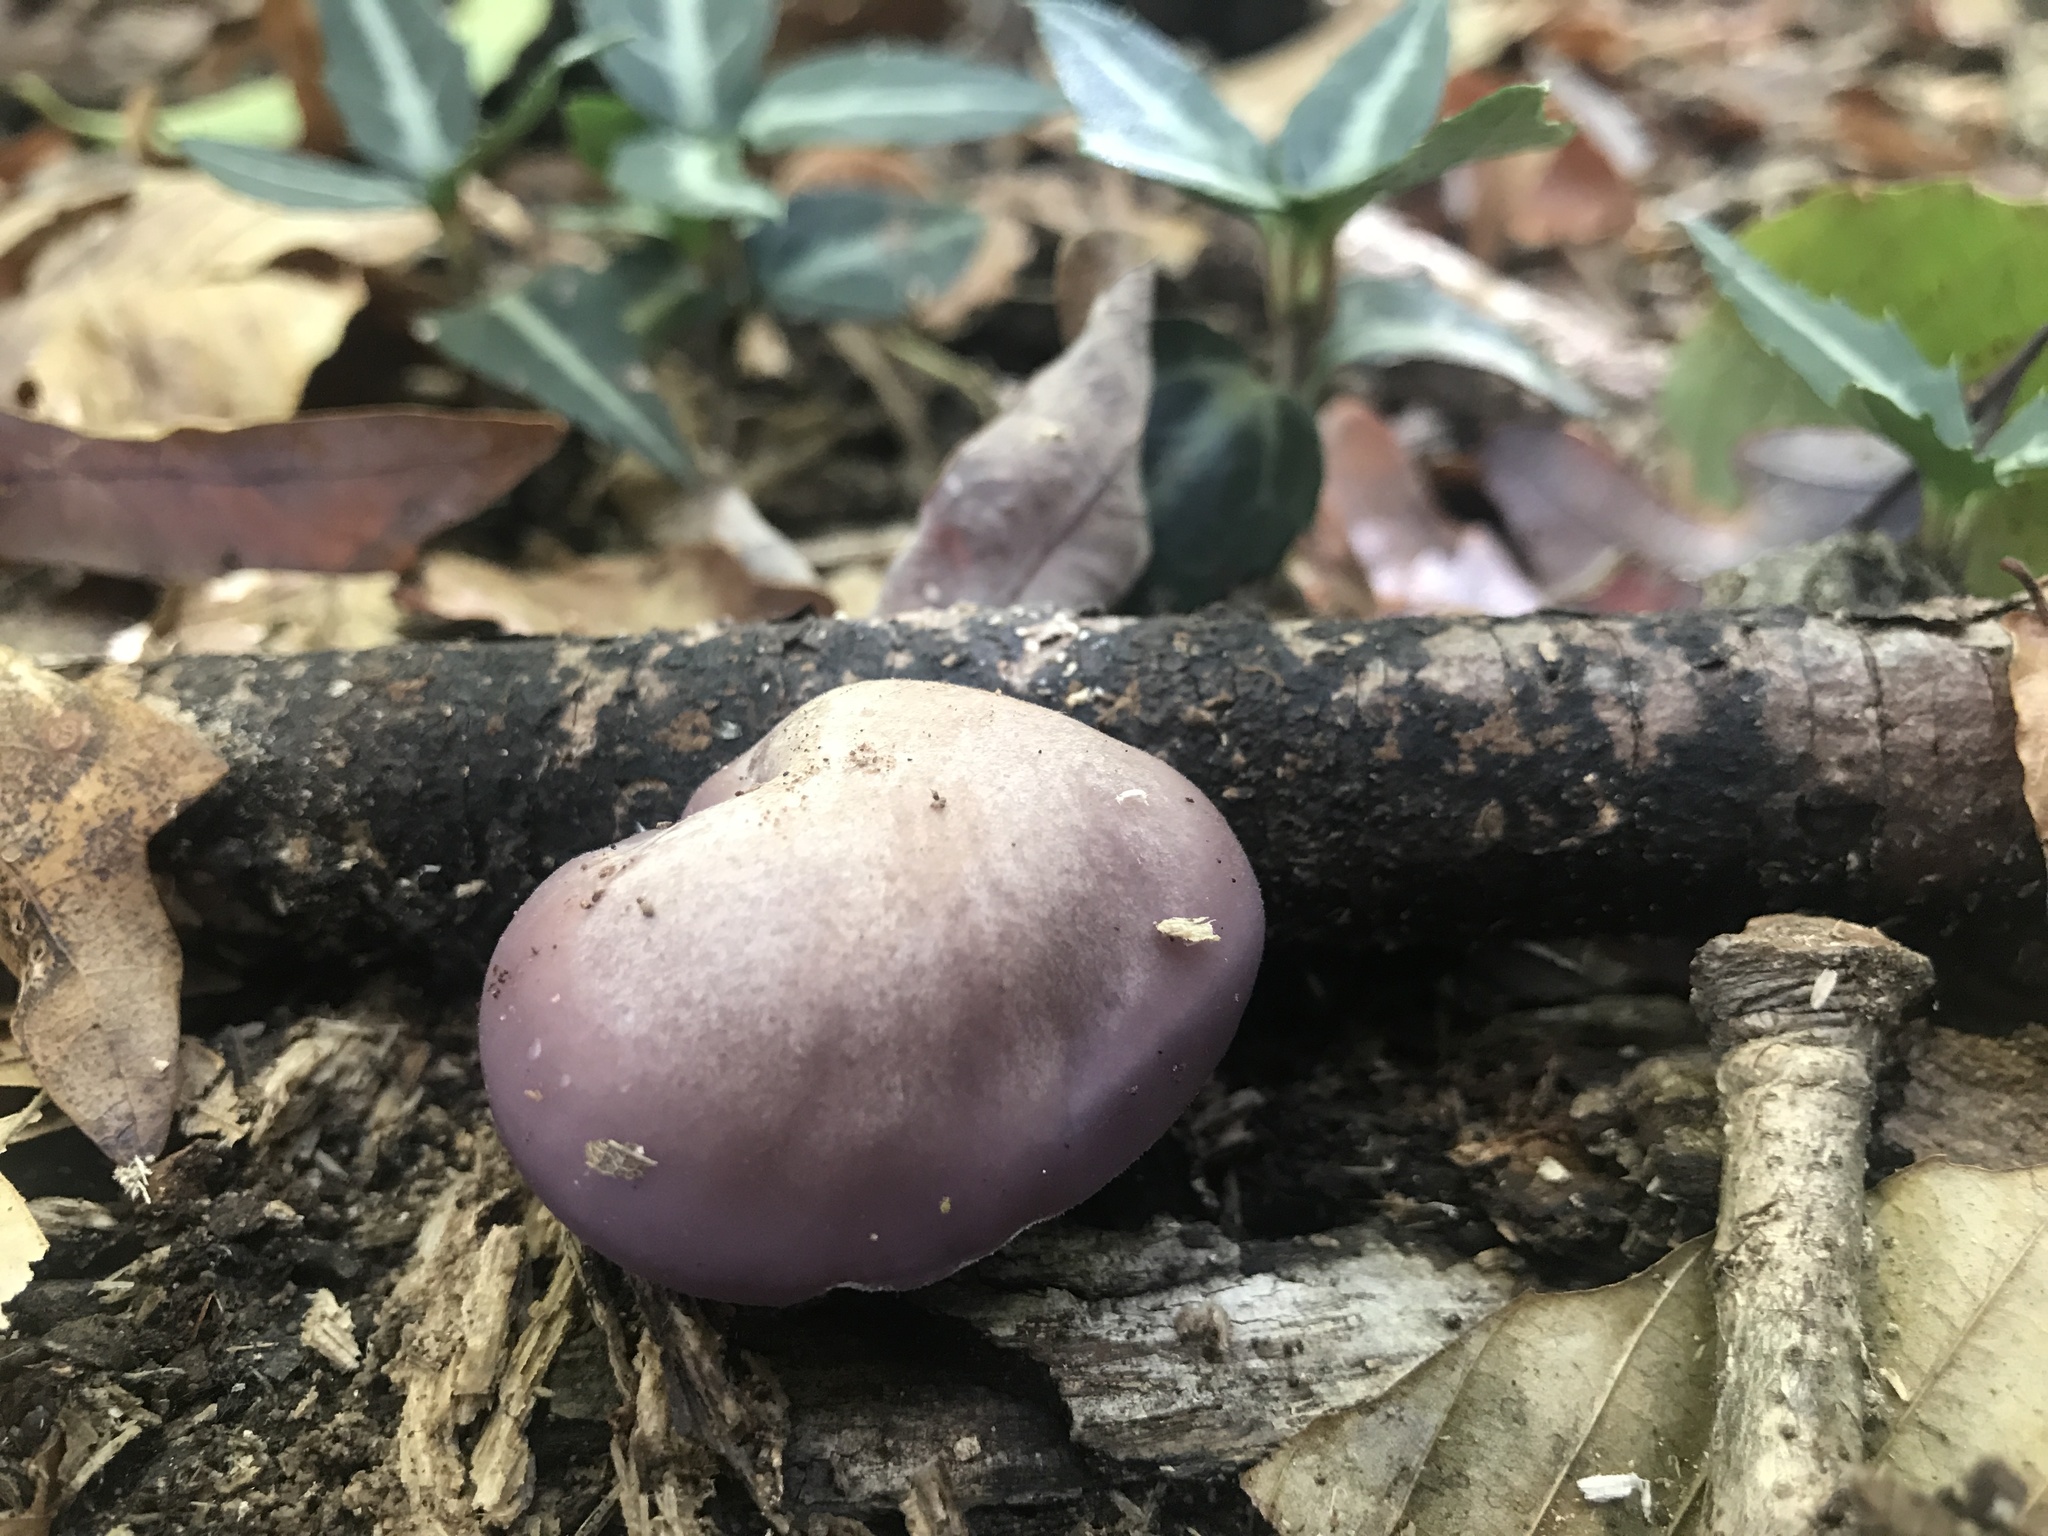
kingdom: Fungi
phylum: Basidiomycota
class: Agaricomycetes
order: Agaricales
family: Tricholomataceae
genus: Collybia
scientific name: Collybia
